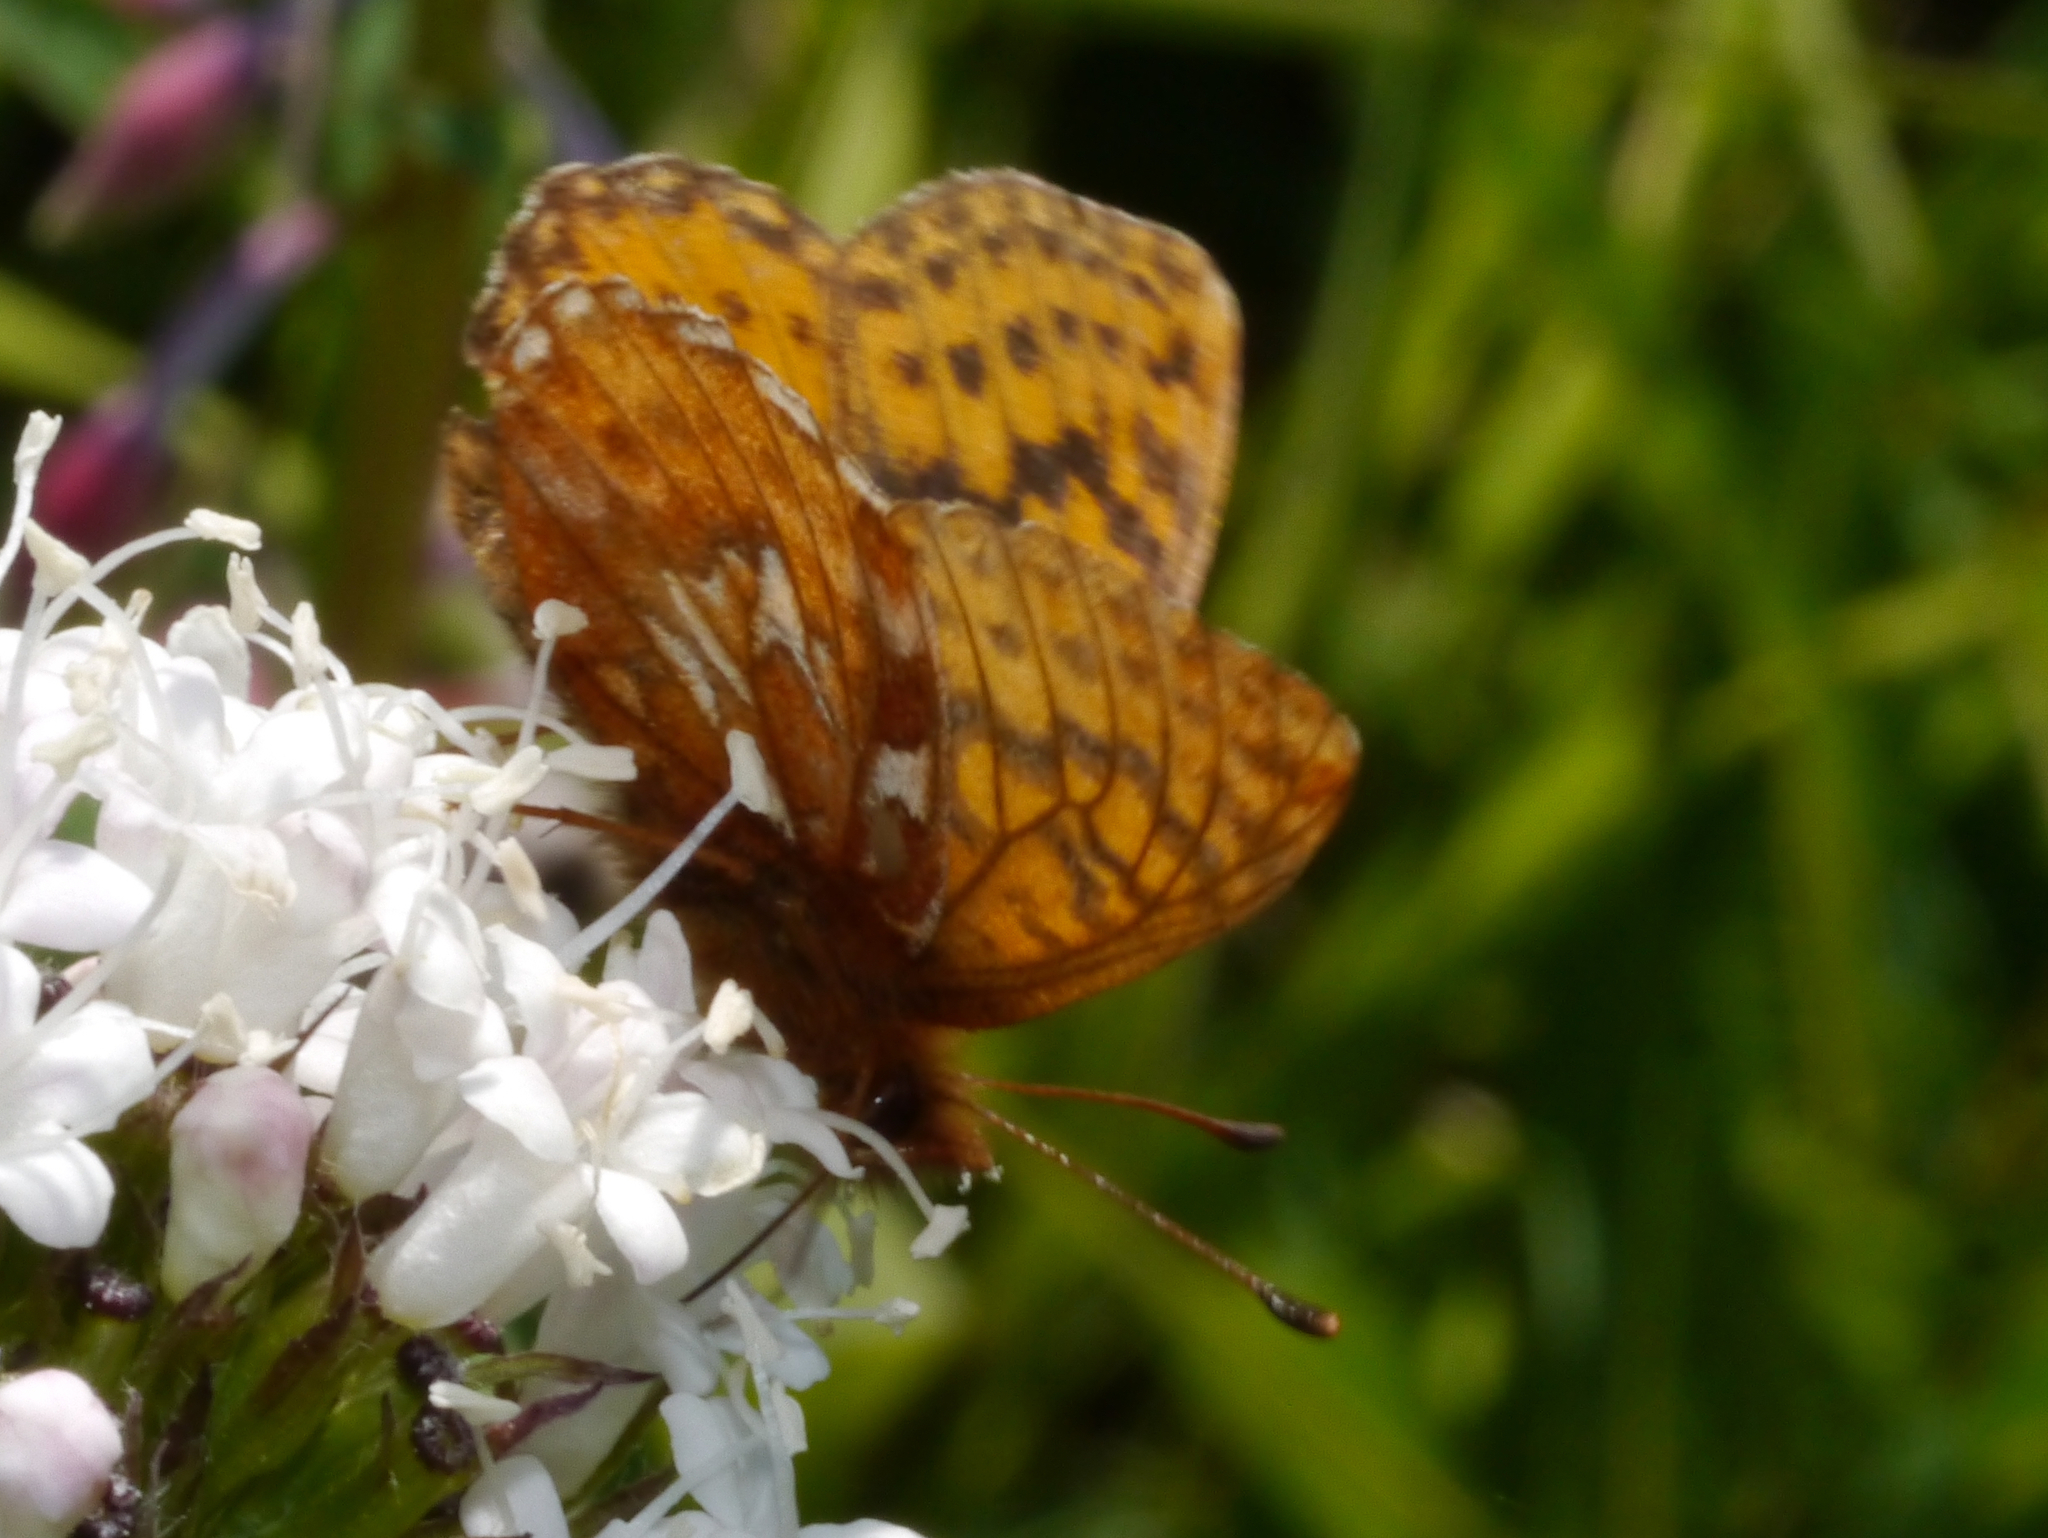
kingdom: Animalia
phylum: Arthropoda
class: Insecta
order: Lepidoptera
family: Nymphalidae
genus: Boloria
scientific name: Boloria chariclea
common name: Arctic fritillary
